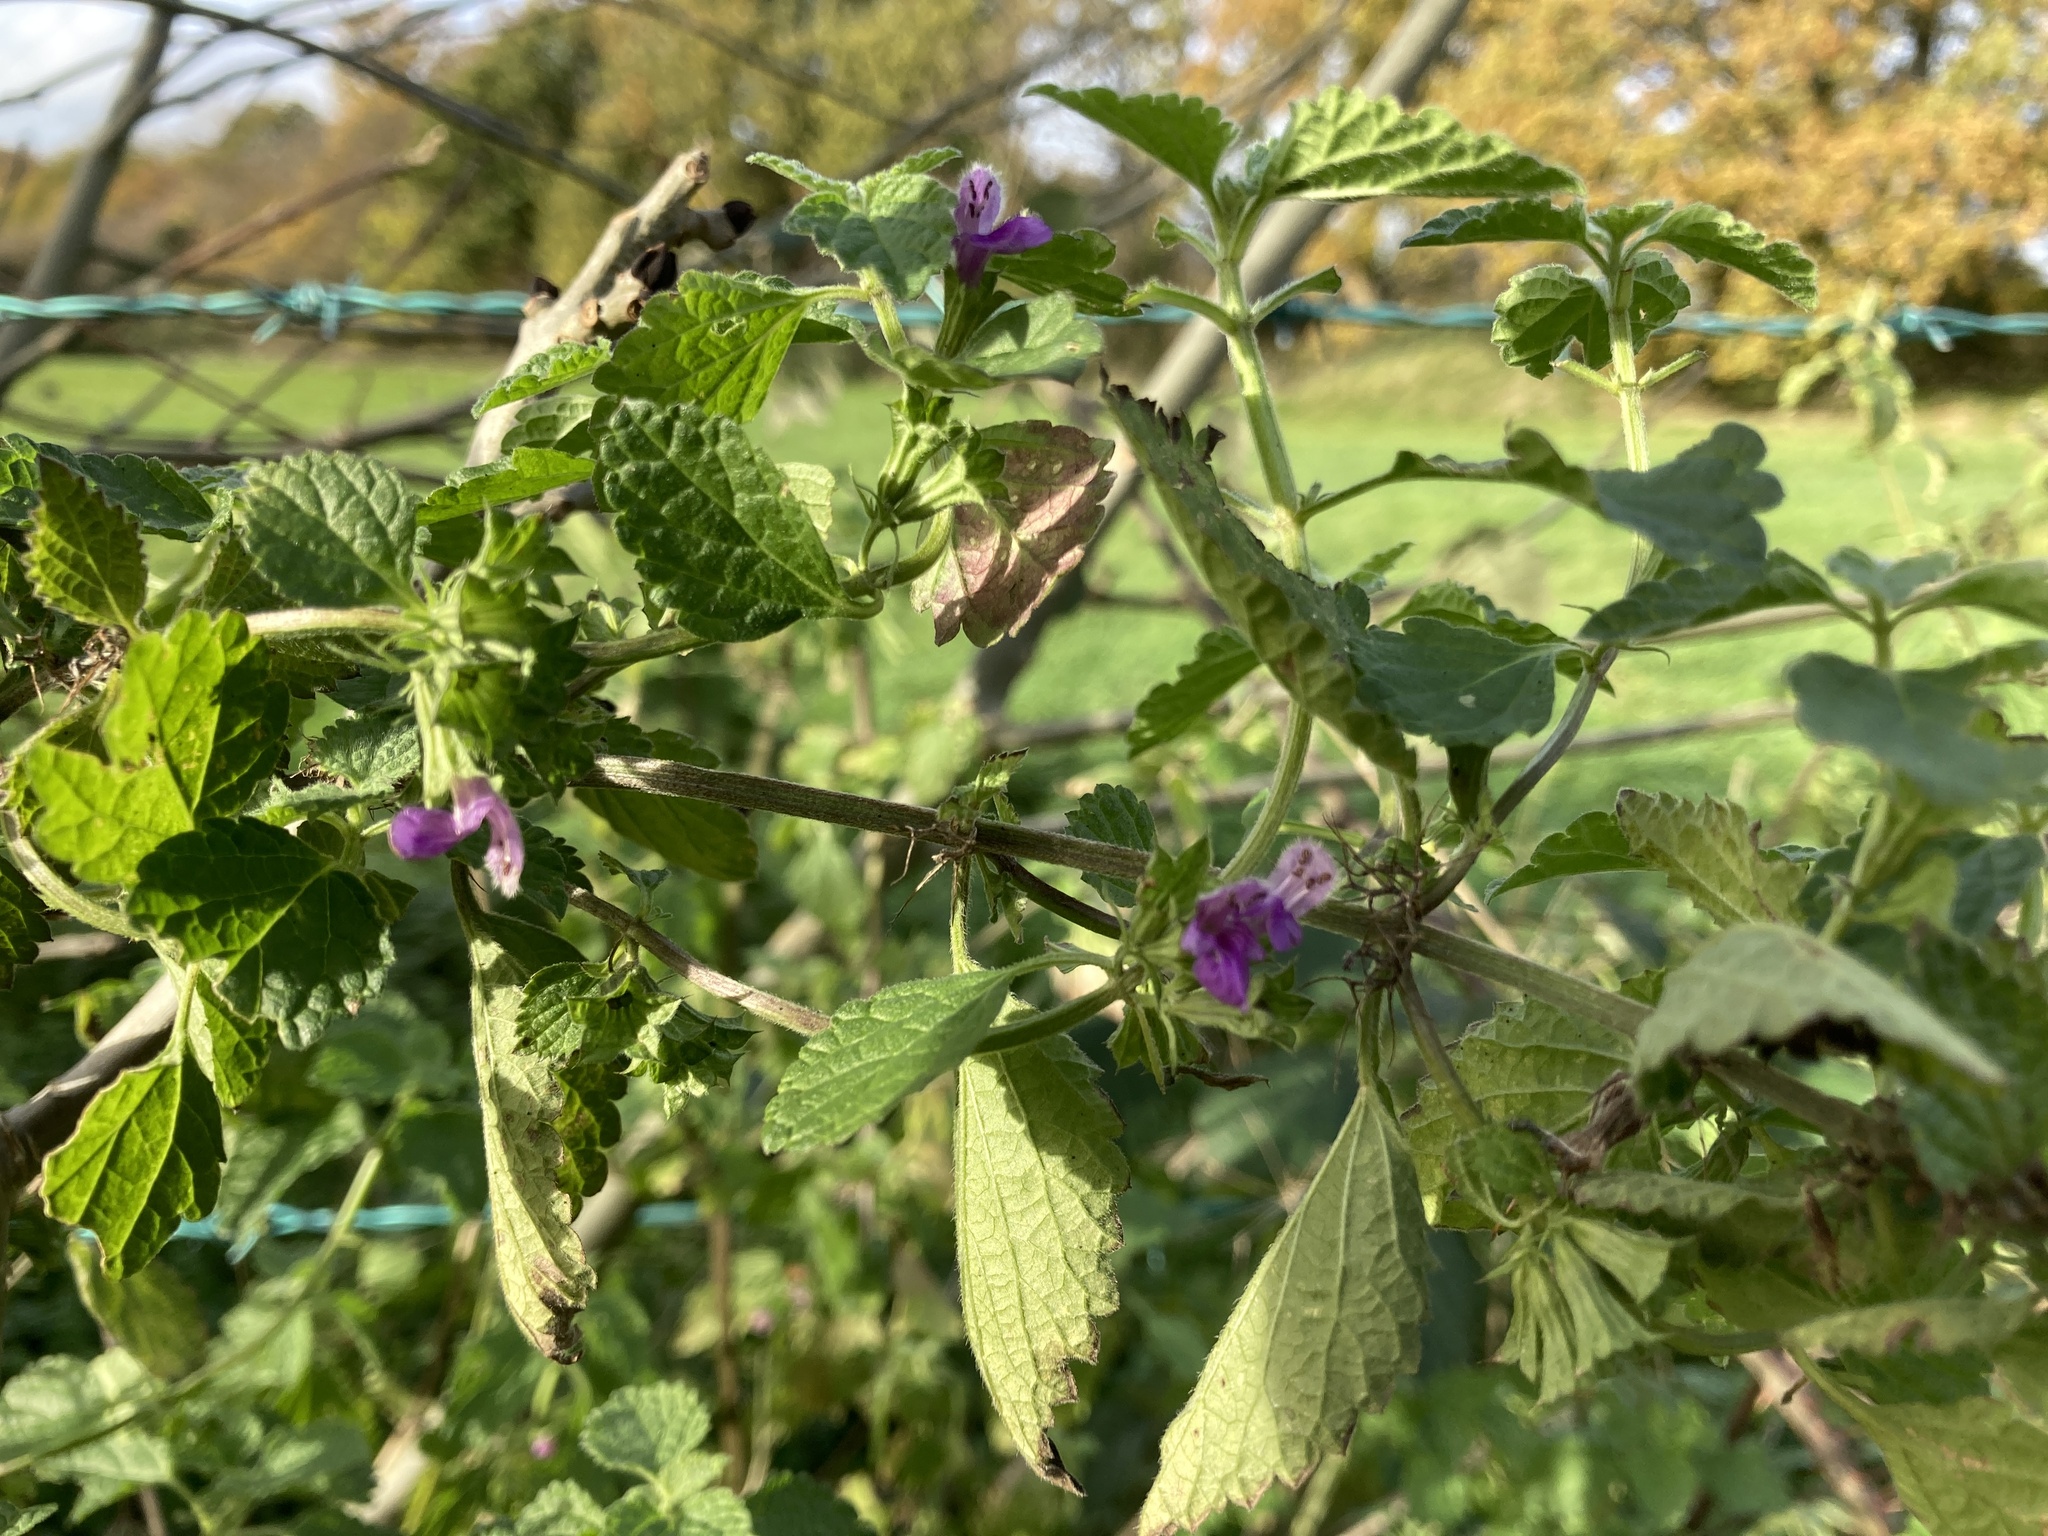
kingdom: Plantae
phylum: Tracheophyta
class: Magnoliopsida
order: Lamiales
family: Lamiaceae
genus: Ballota
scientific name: Ballota nigra
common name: Black horehound
